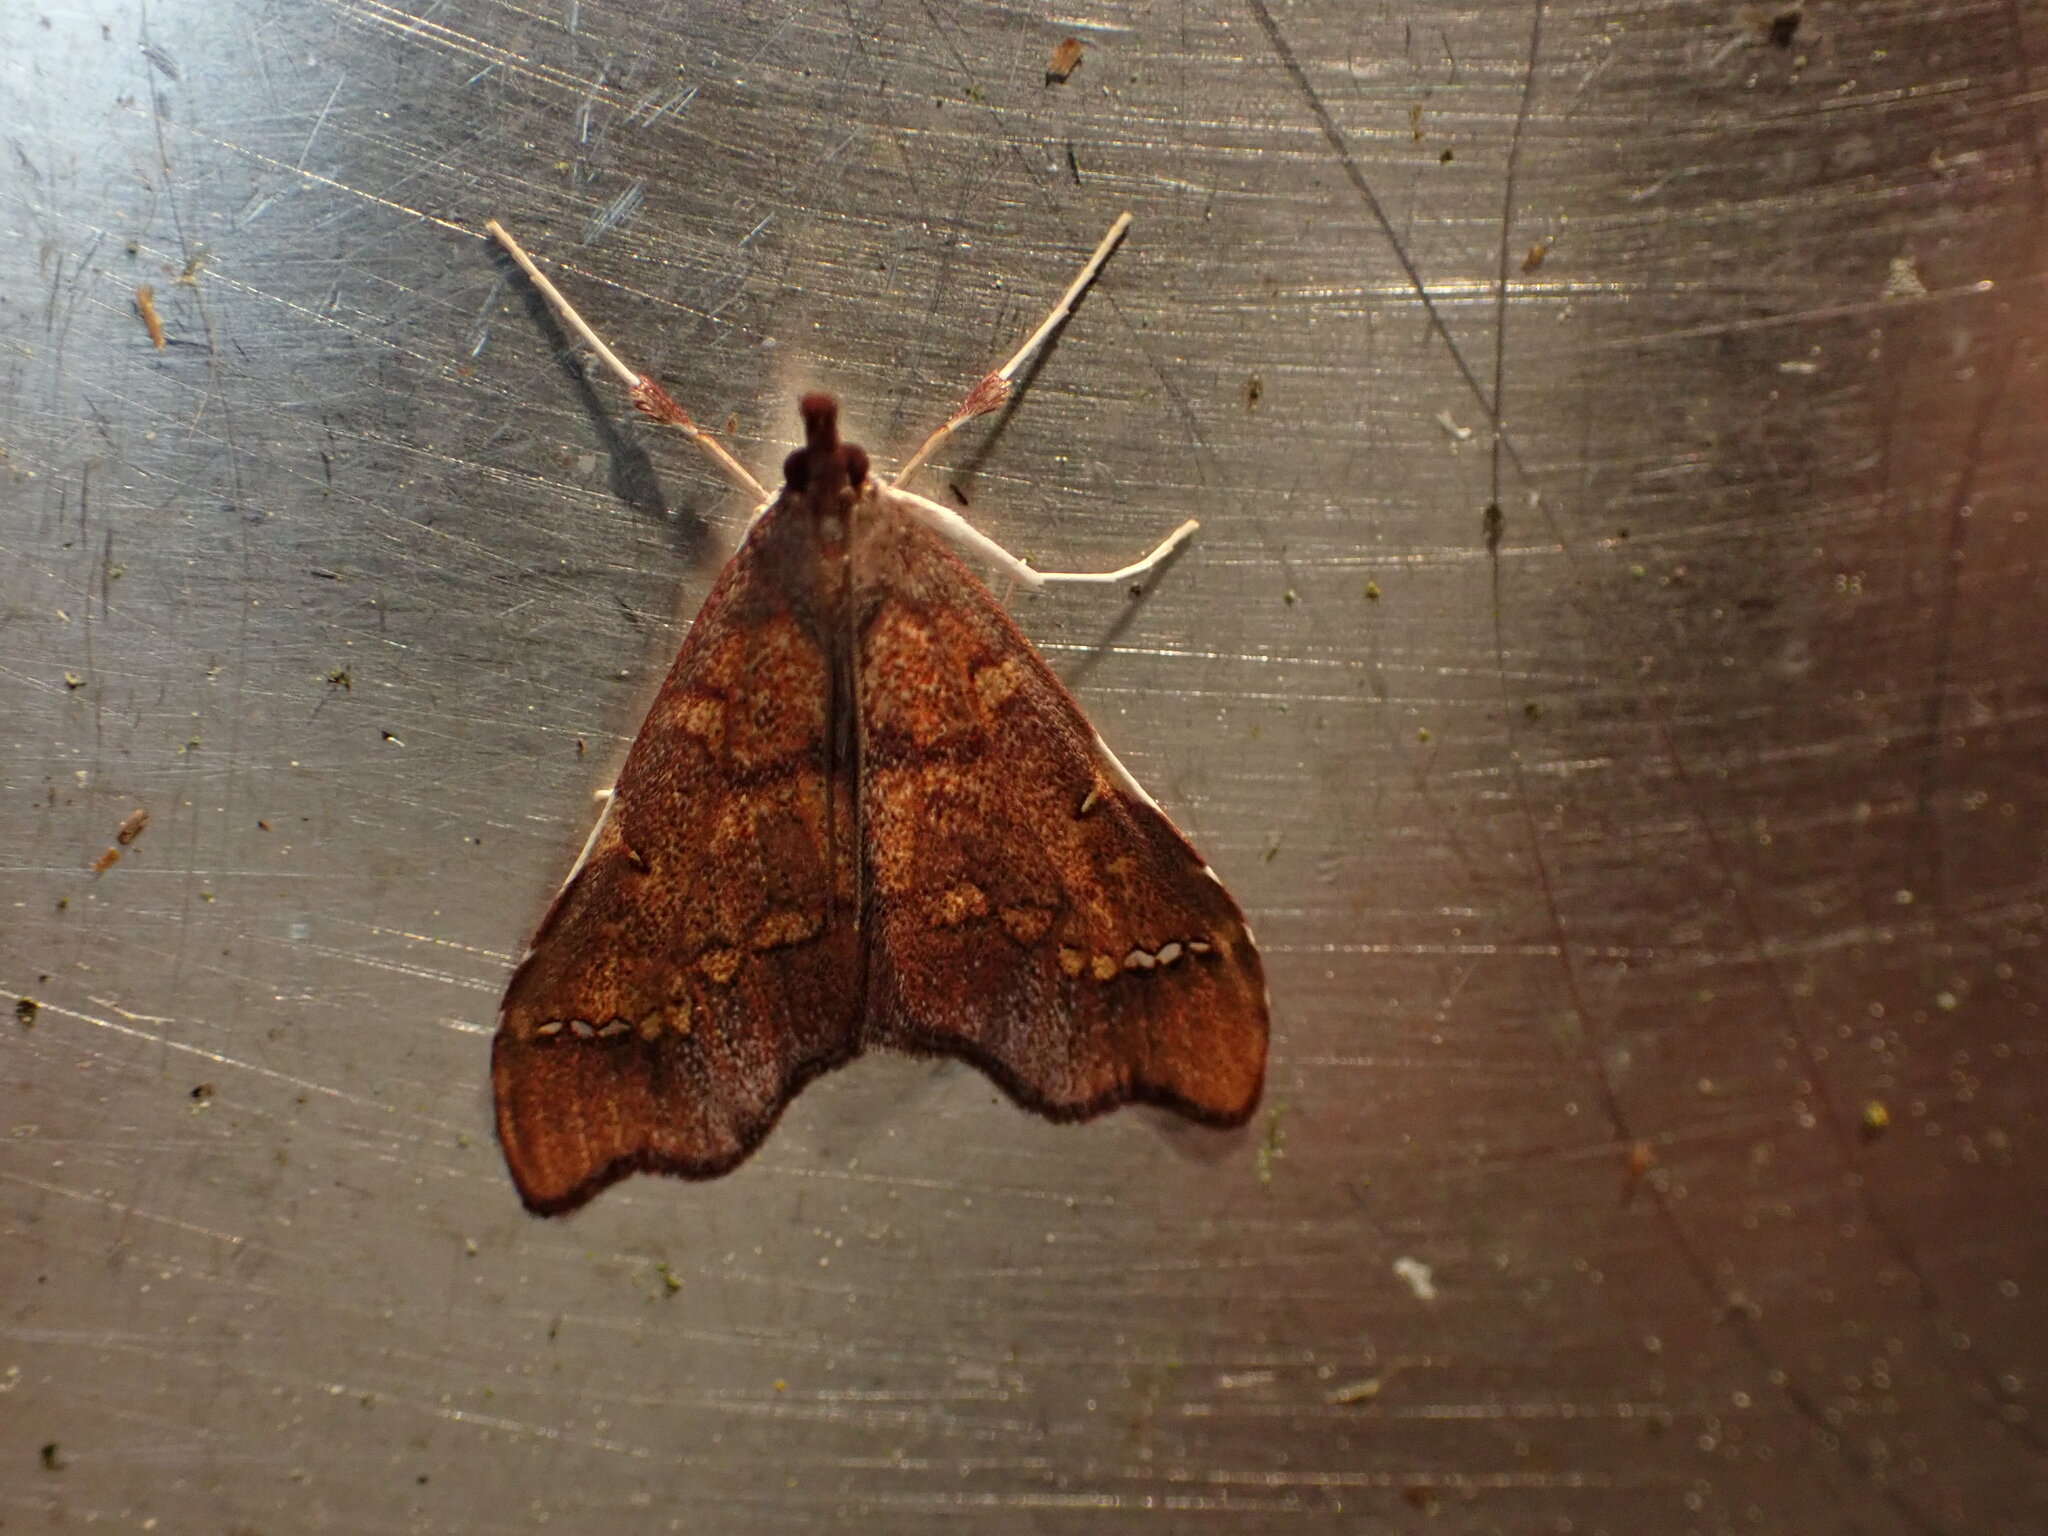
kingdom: Animalia
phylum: Arthropoda
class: Insecta
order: Lepidoptera
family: Crambidae
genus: Deana
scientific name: Deana hybreasalis
